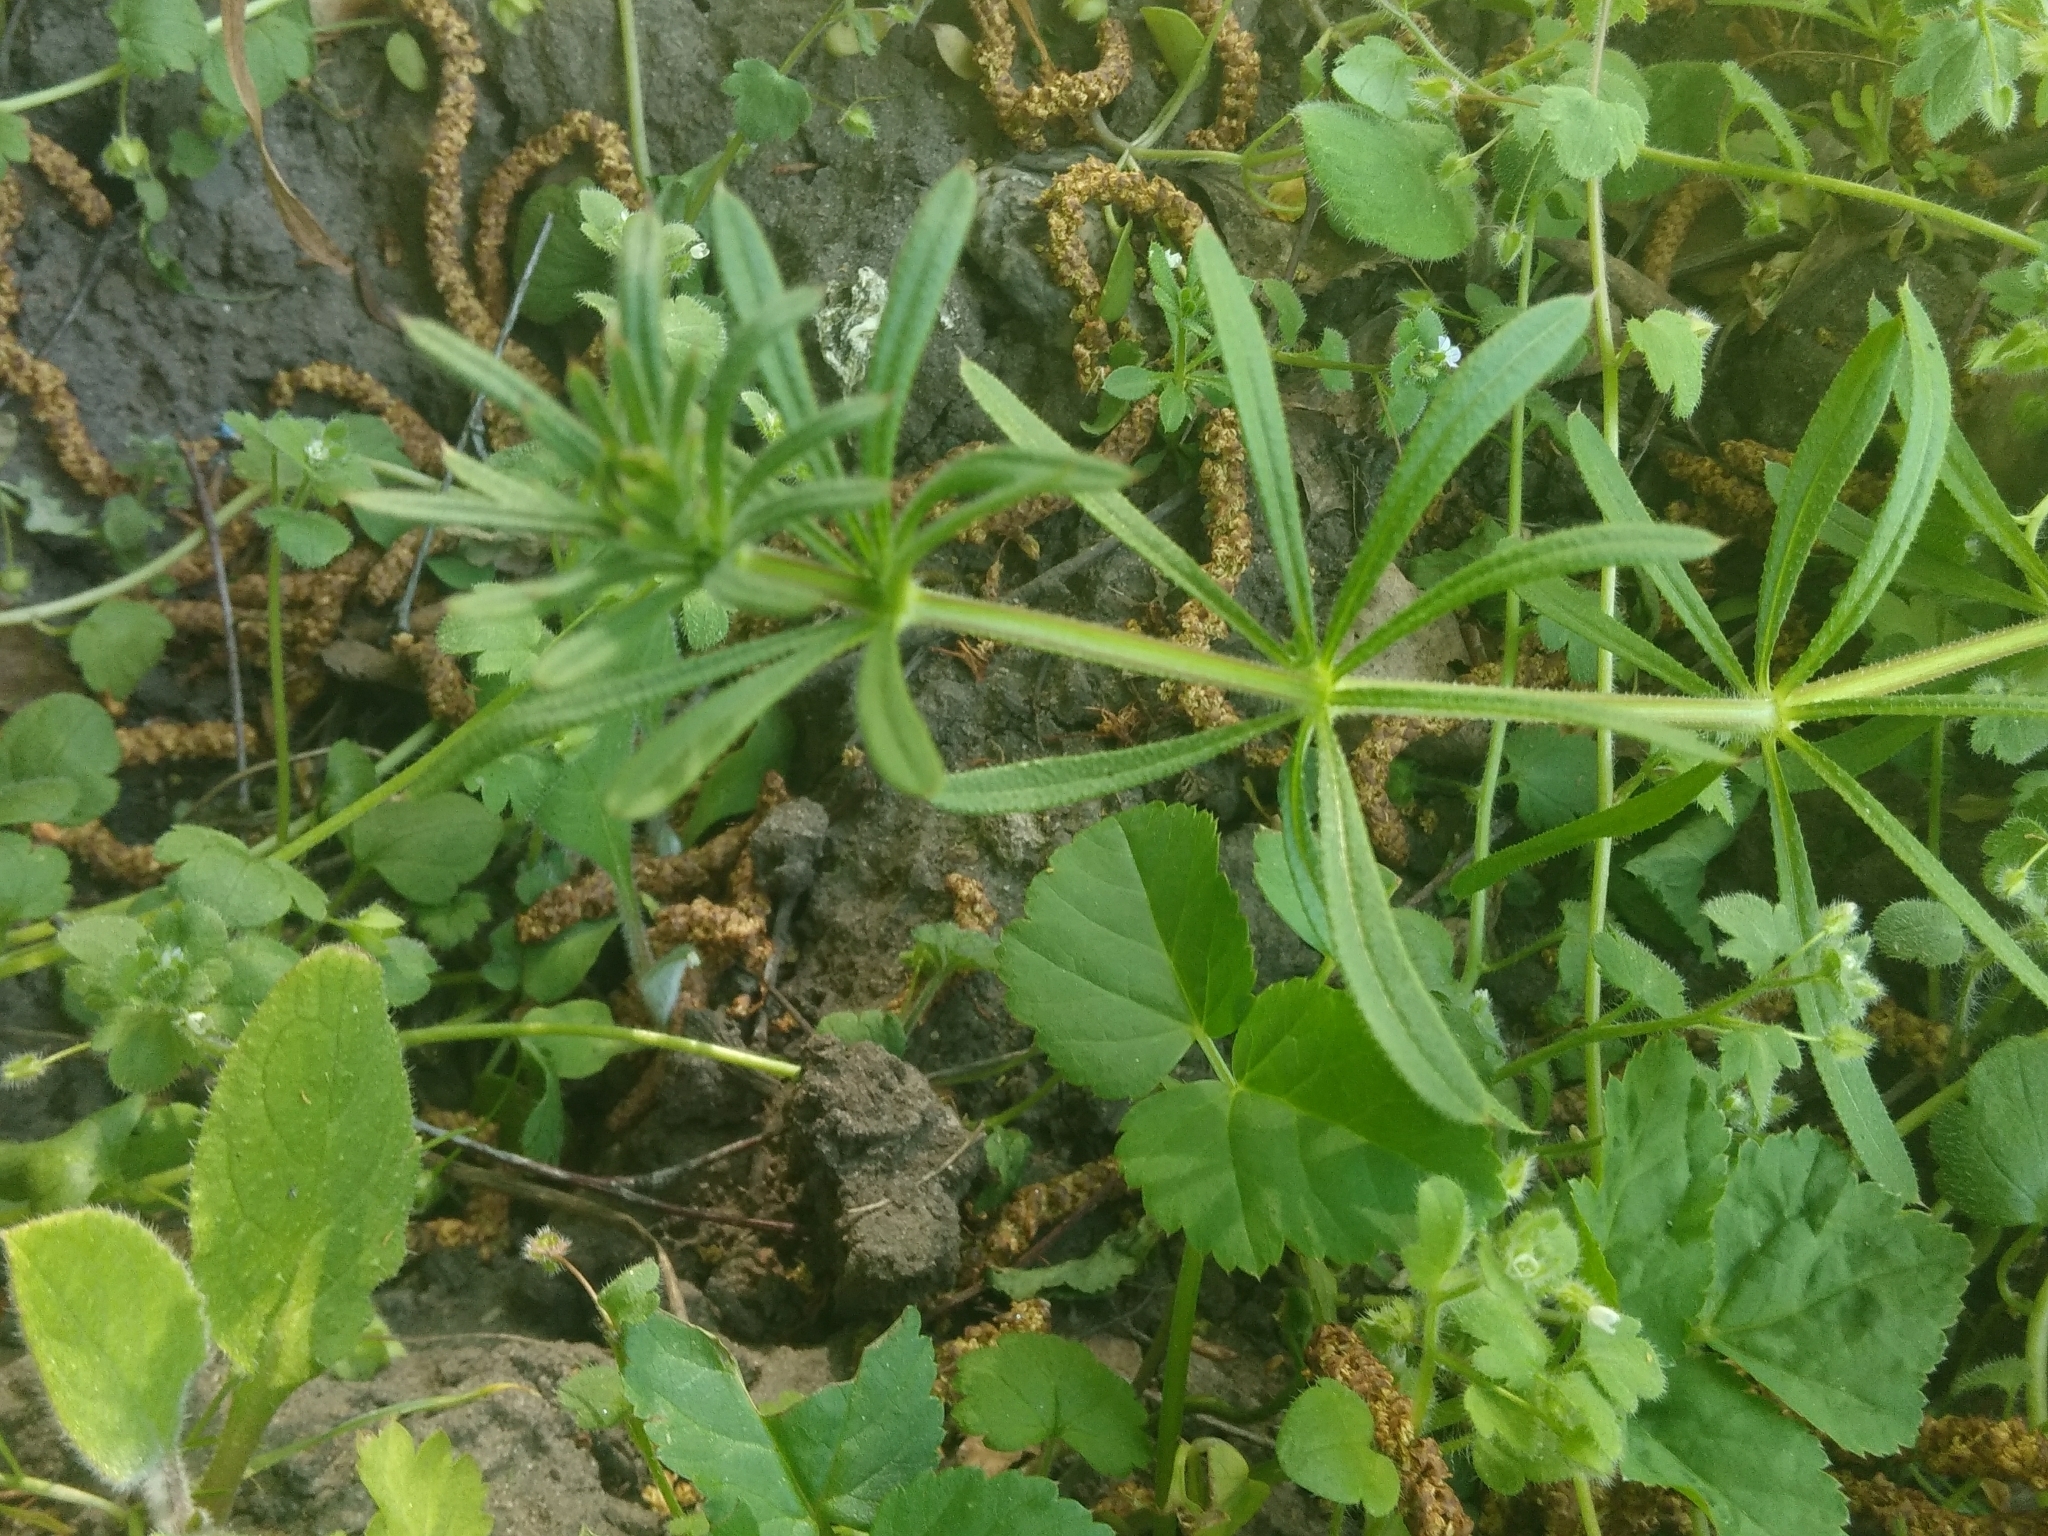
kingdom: Plantae
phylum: Tracheophyta
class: Magnoliopsida
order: Gentianales
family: Rubiaceae
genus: Galium
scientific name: Galium aparine
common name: Cleavers
